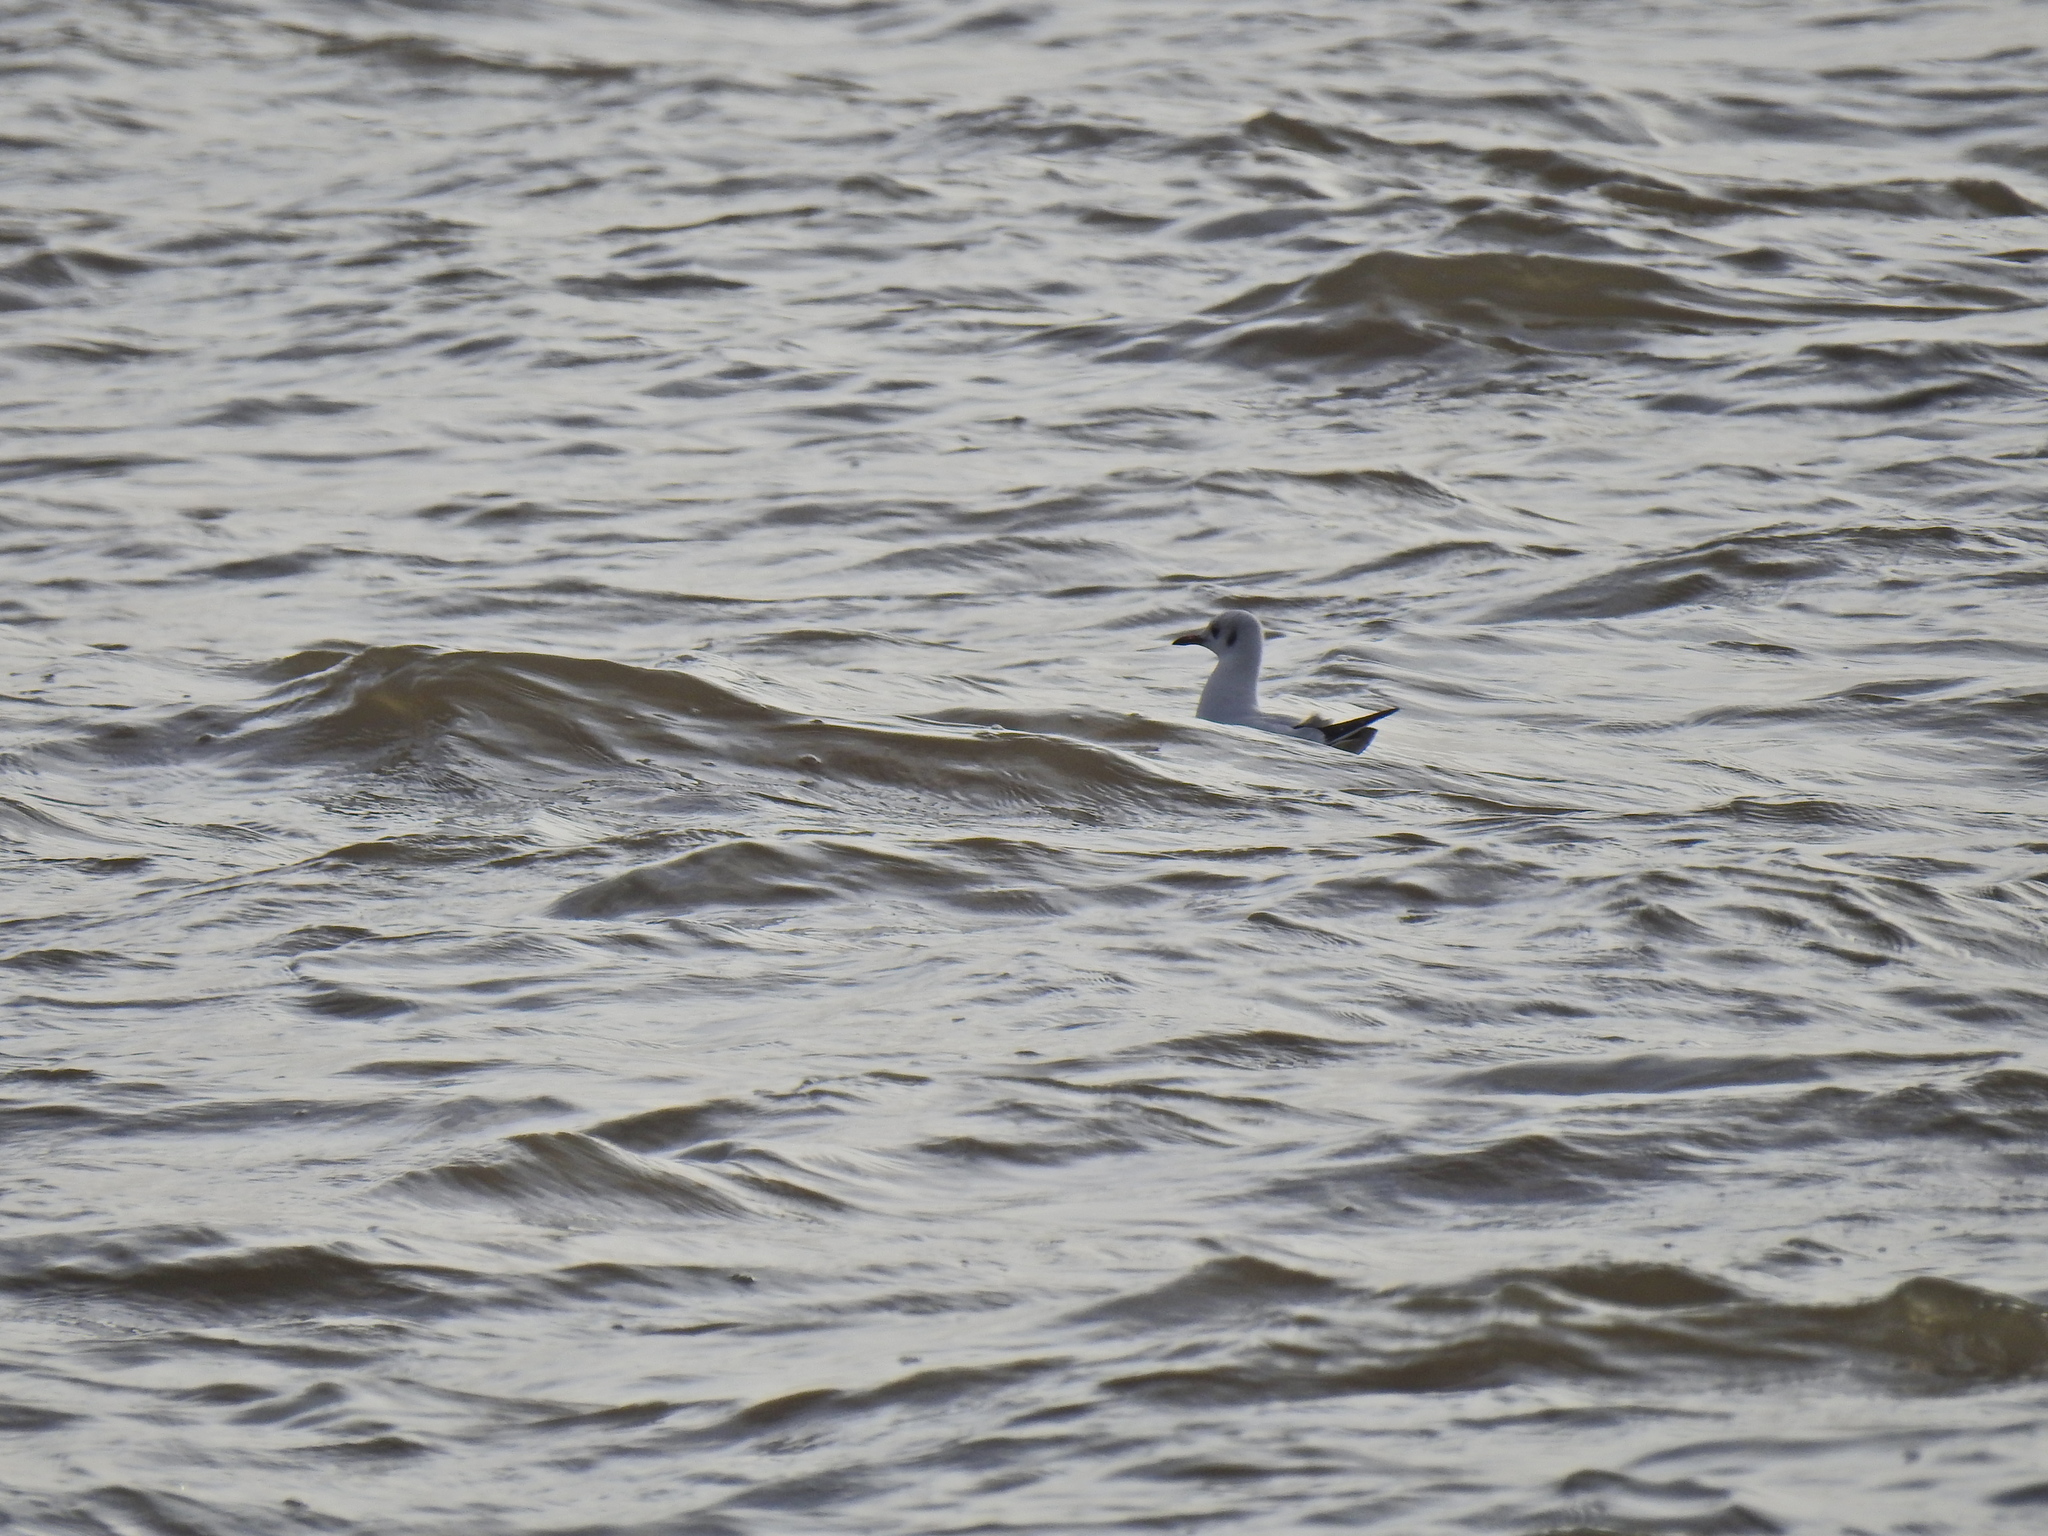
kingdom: Animalia
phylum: Chordata
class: Aves
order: Charadriiformes
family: Laridae
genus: Chroicocephalus
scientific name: Chroicocephalus ridibundus
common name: Black-headed gull
